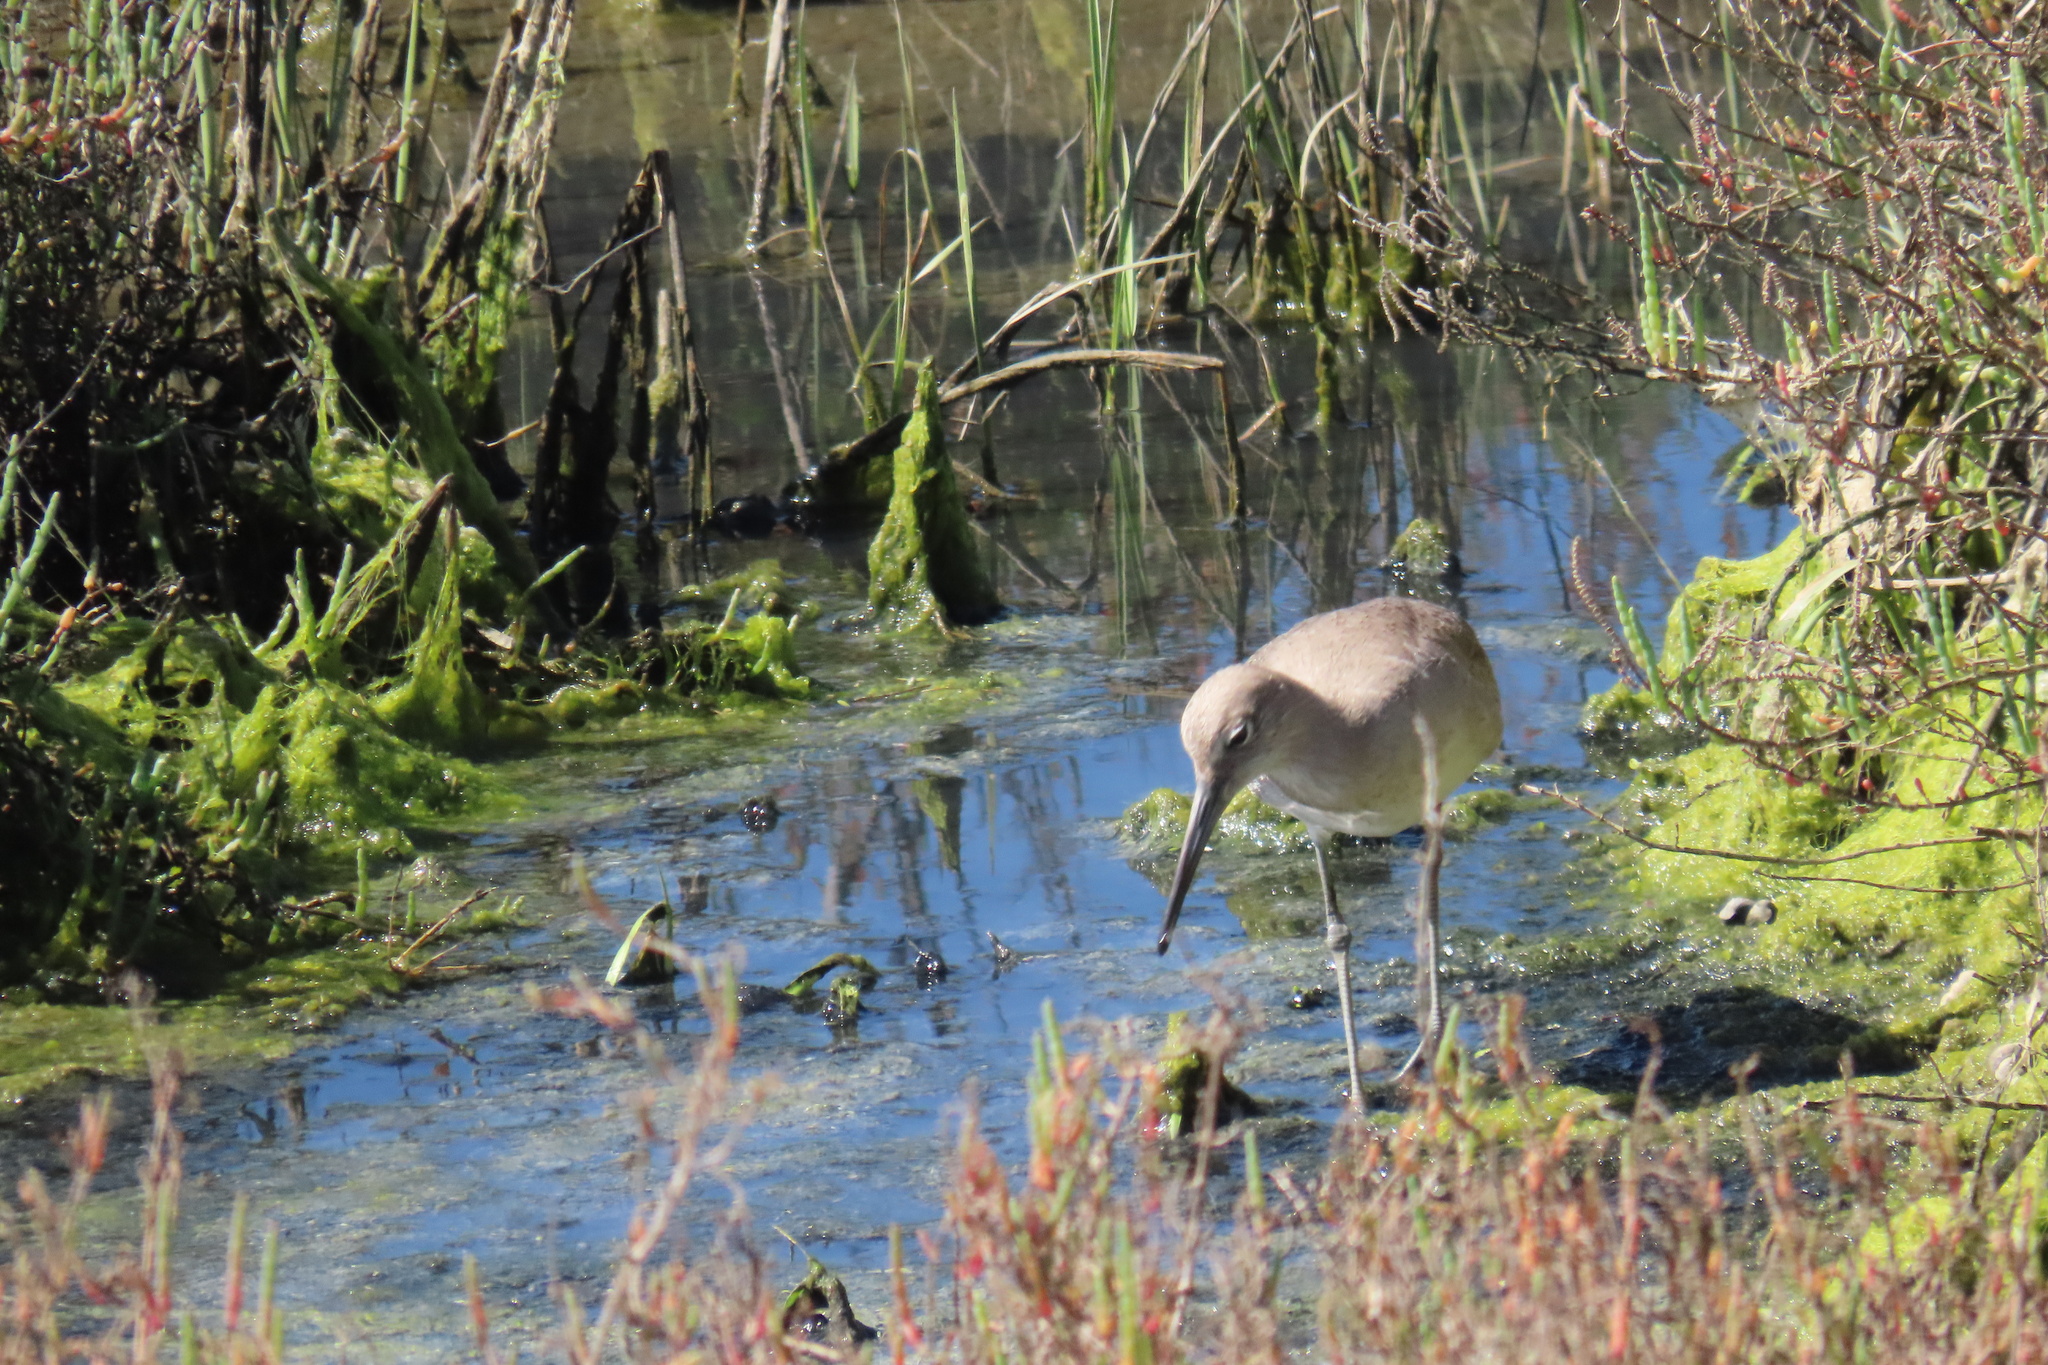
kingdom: Animalia
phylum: Chordata
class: Aves
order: Charadriiformes
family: Scolopacidae
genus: Tringa
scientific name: Tringa semipalmata
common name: Willet
